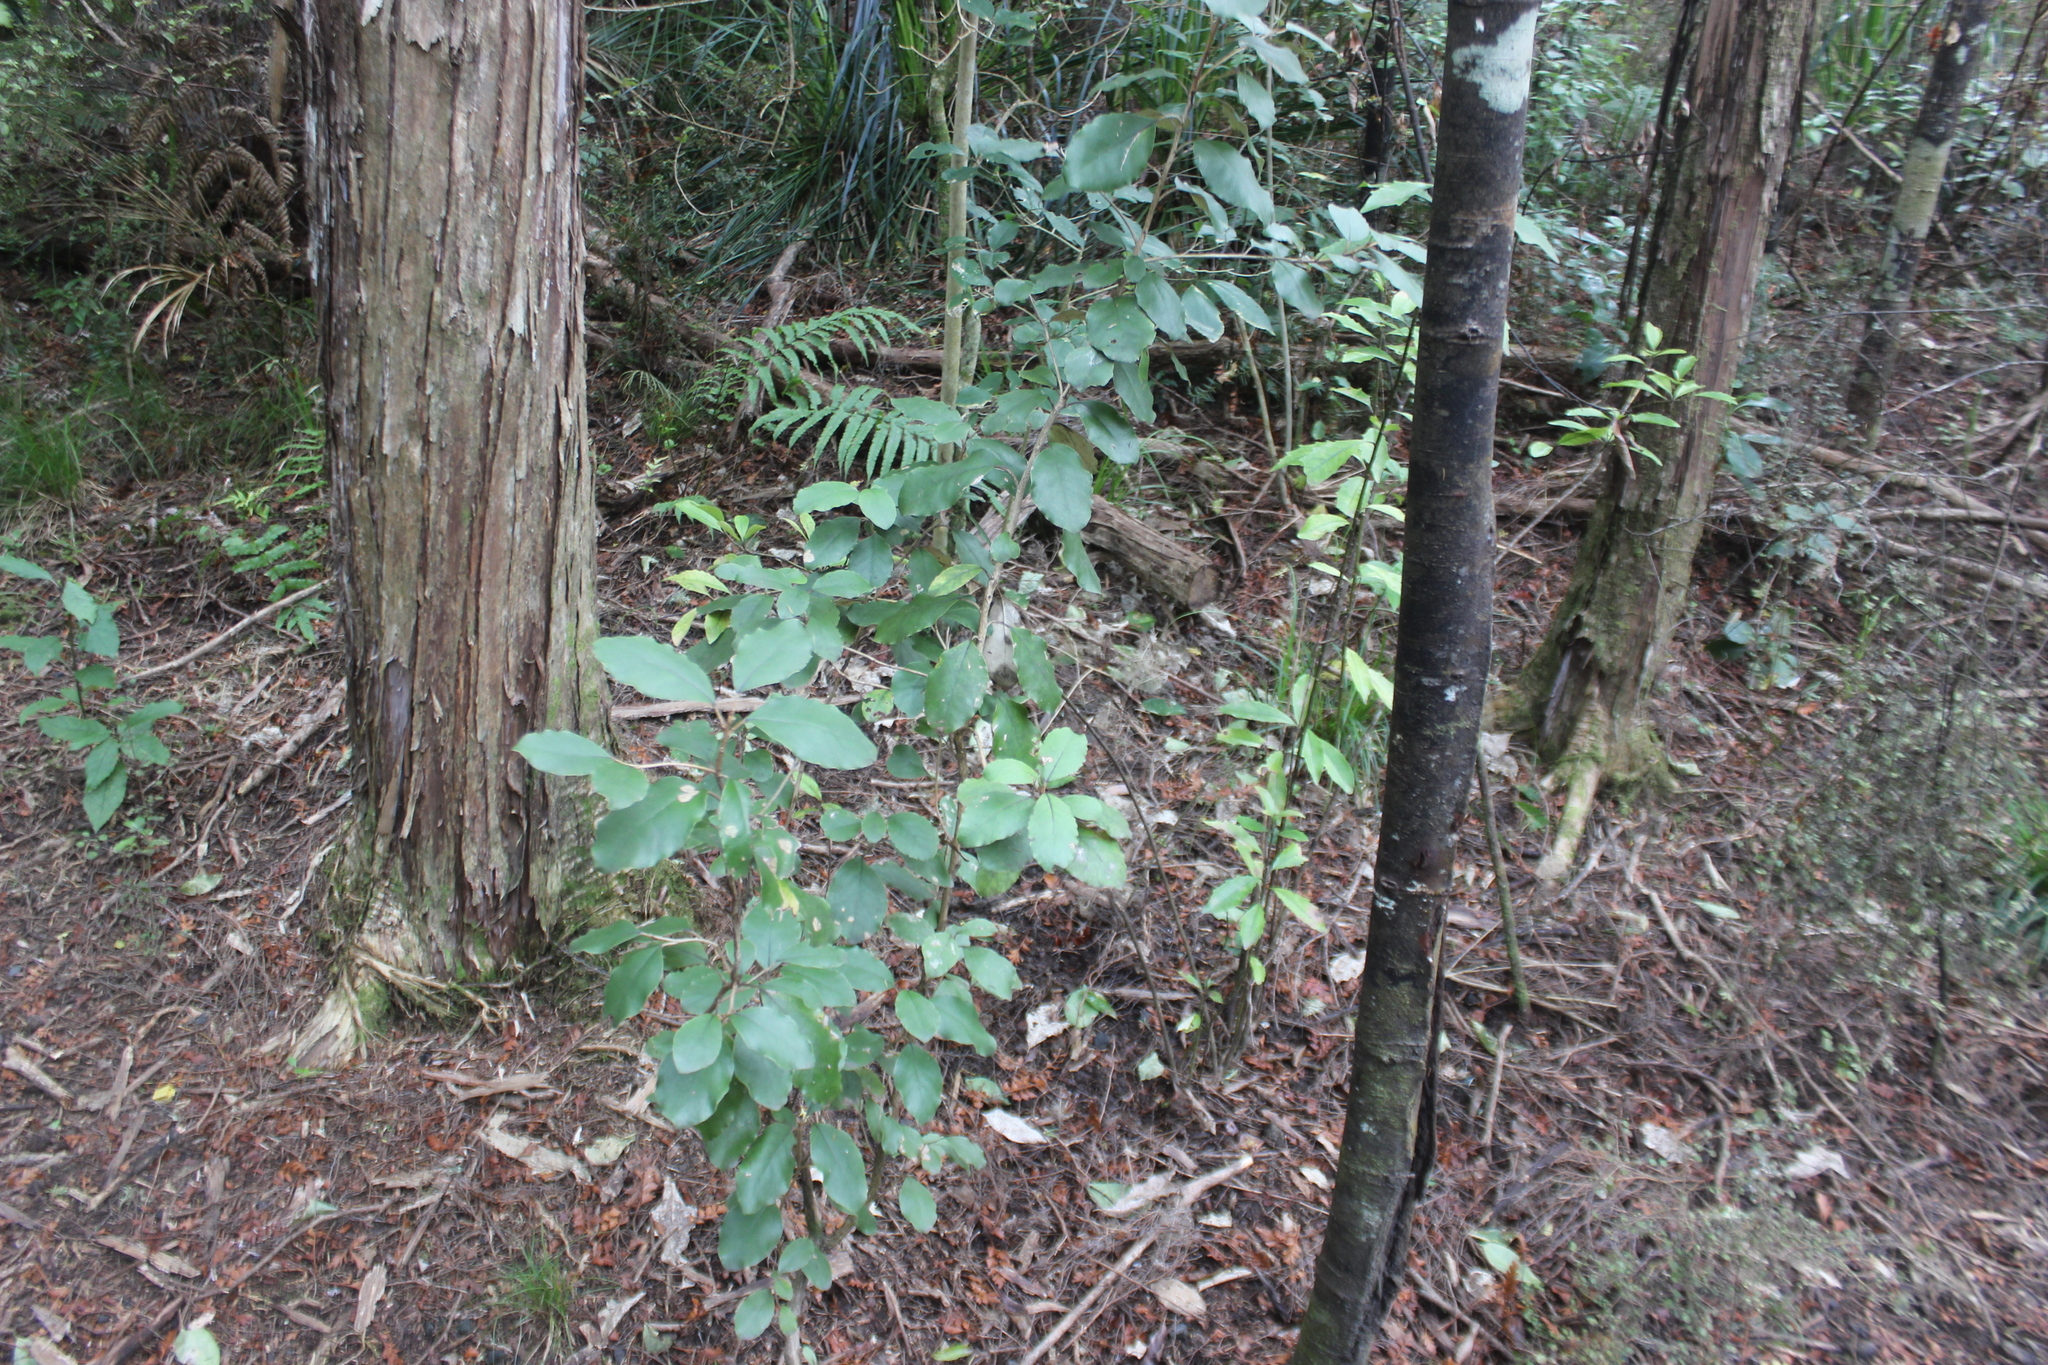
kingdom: Plantae
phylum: Tracheophyta
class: Magnoliopsida
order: Asterales
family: Asteraceae
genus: Olearia
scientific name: Olearia furfuracea
